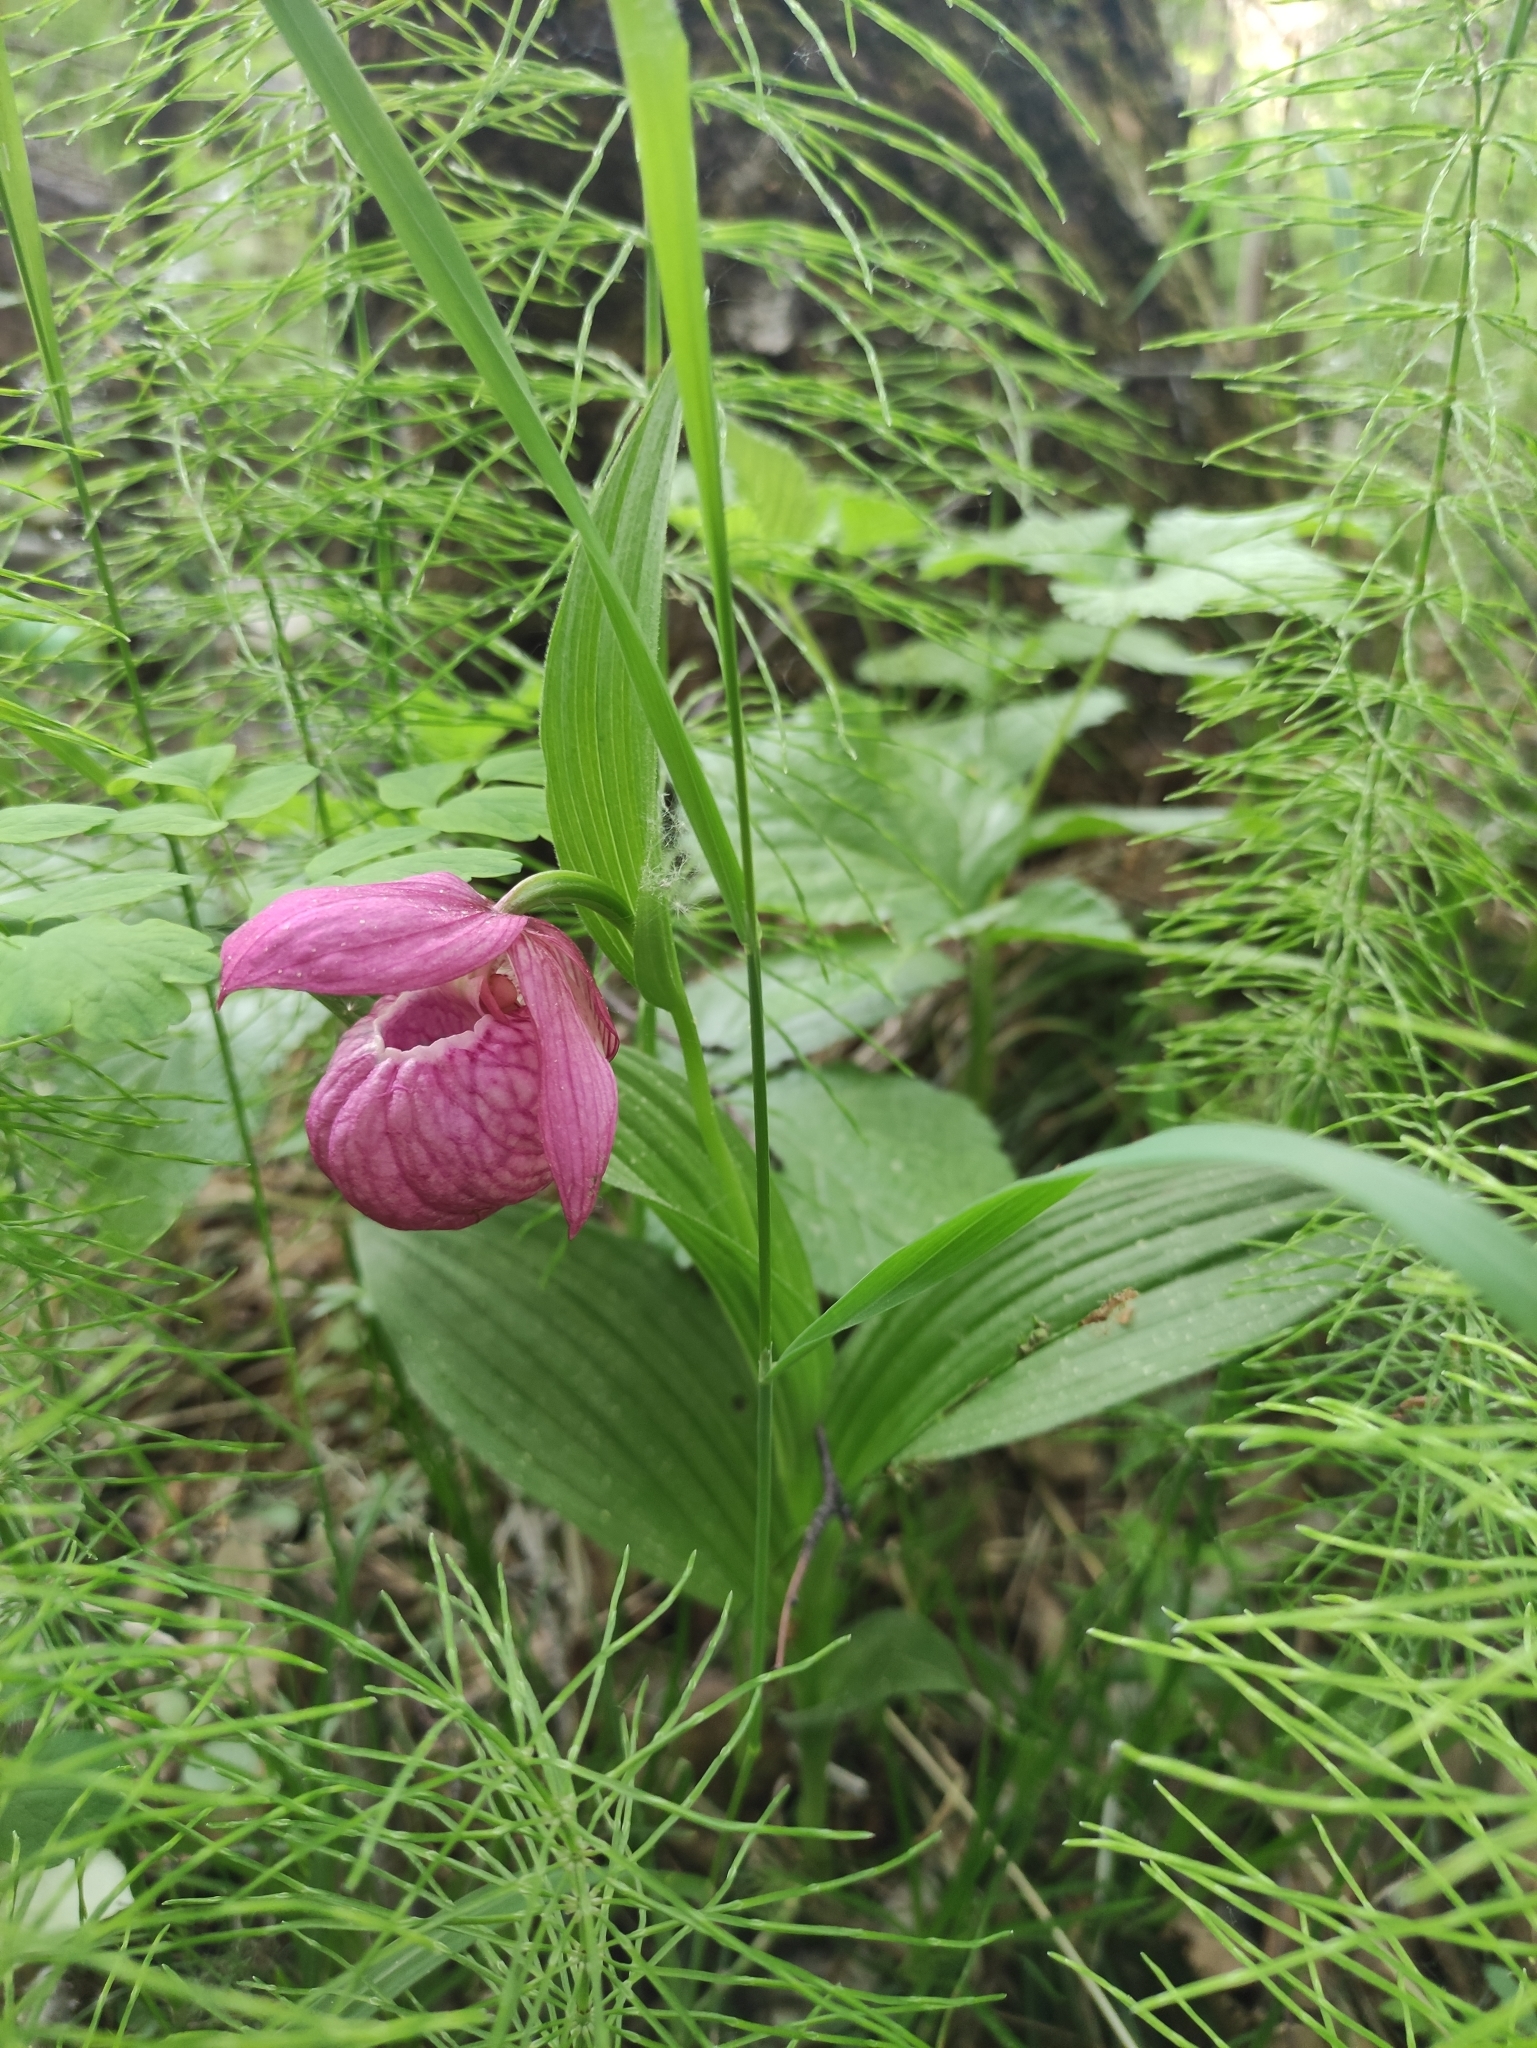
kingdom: Plantae
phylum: Tracheophyta
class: Liliopsida
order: Asparagales
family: Orchidaceae
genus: Cypripedium
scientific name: Cypripedium macranthos
